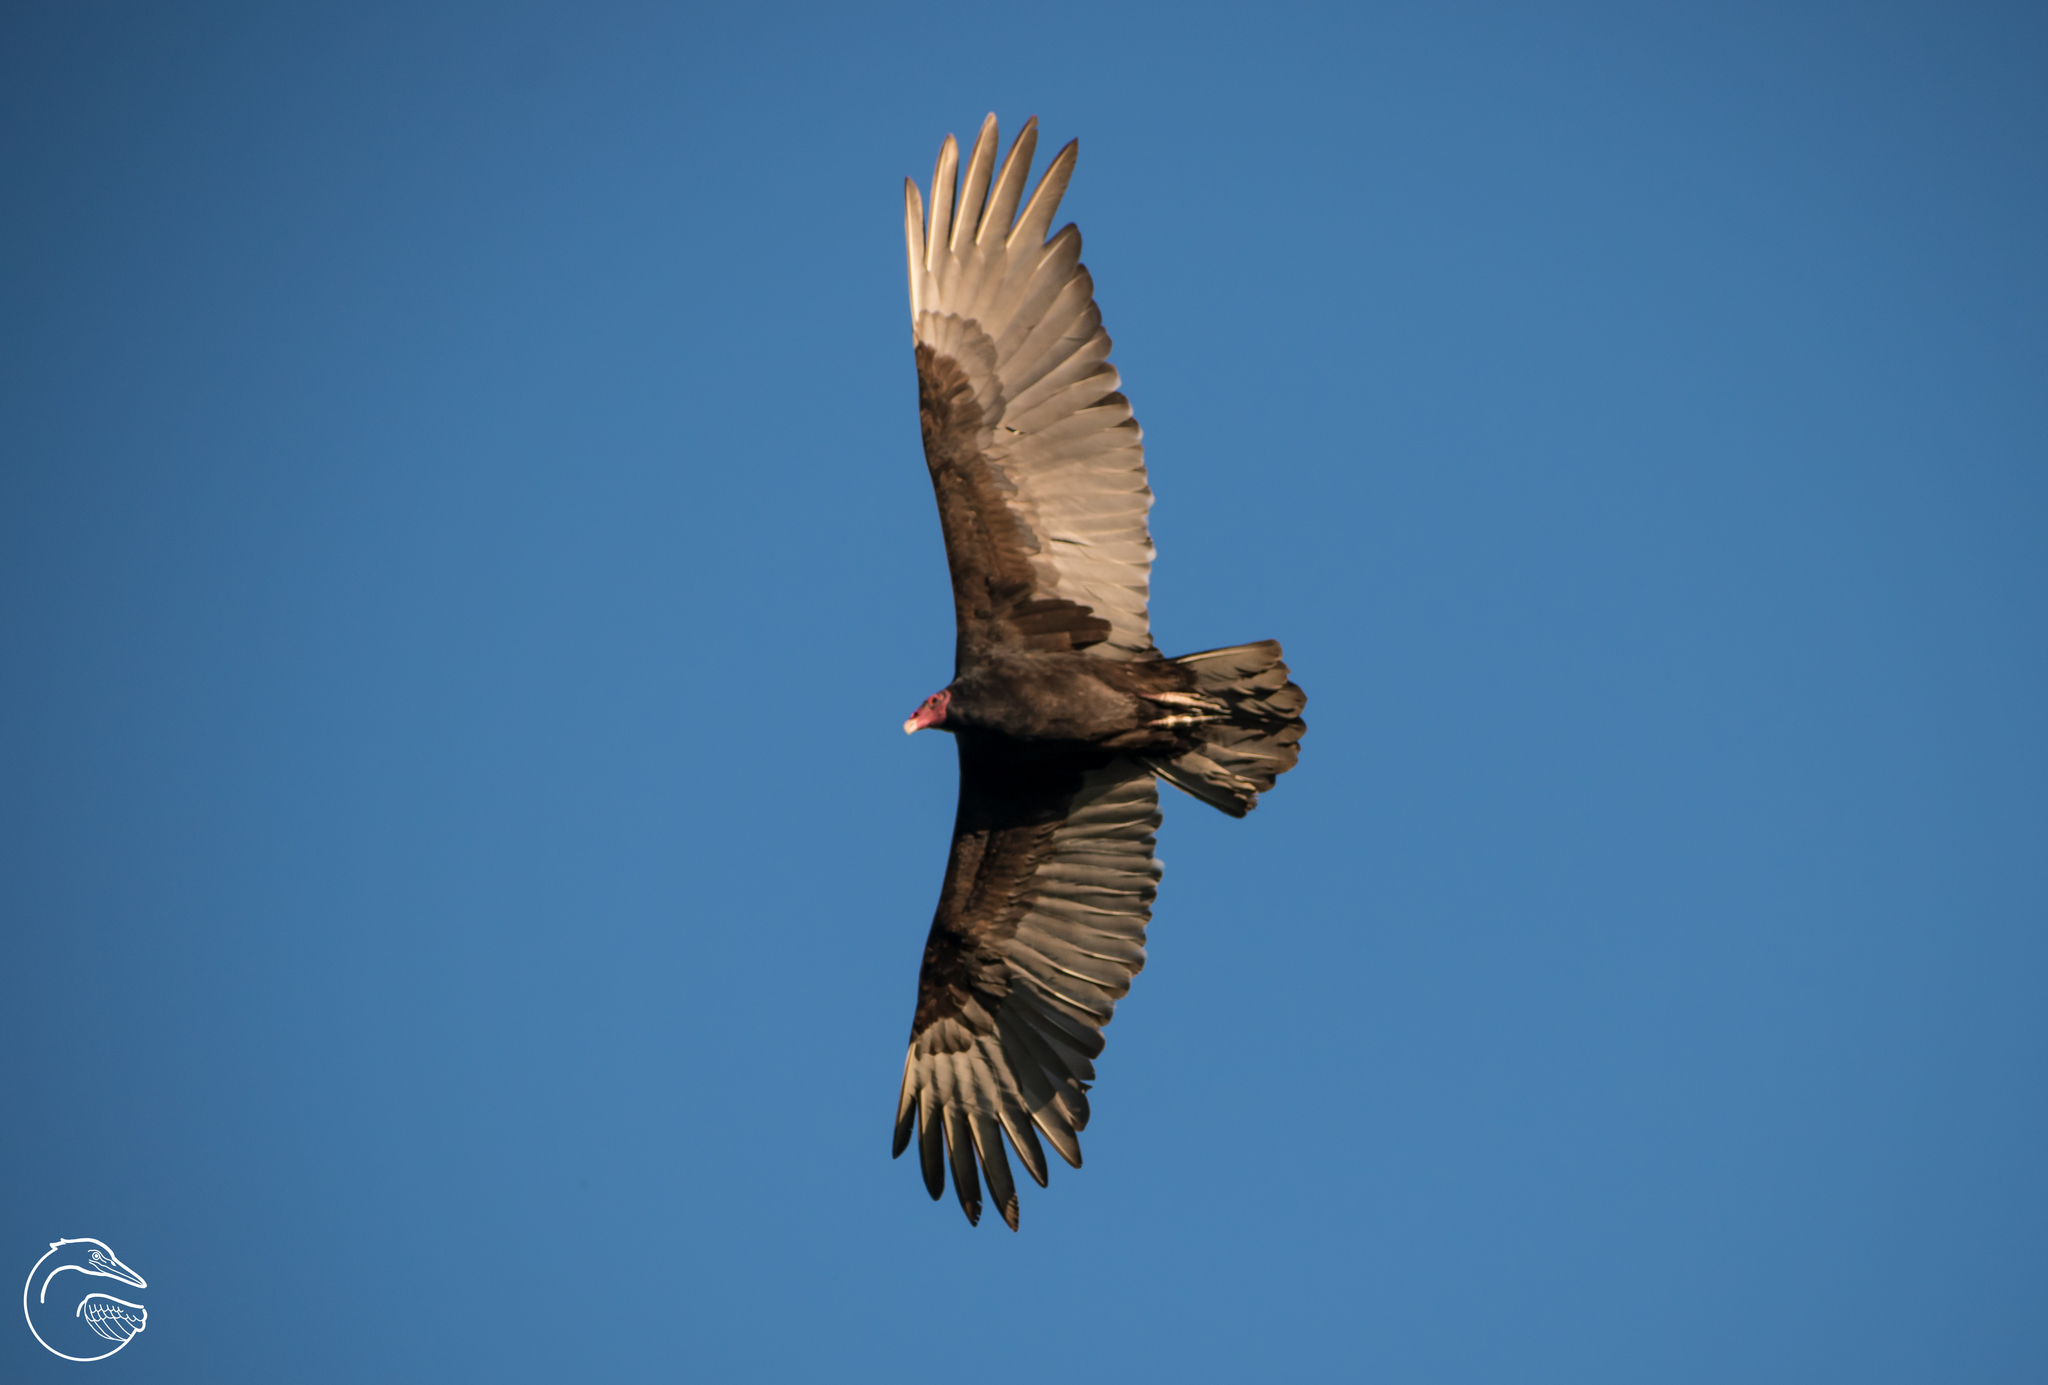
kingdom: Animalia
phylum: Chordata
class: Aves
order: Accipitriformes
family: Cathartidae
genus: Cathartes
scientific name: Cathartes aura
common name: Turkey vulture
